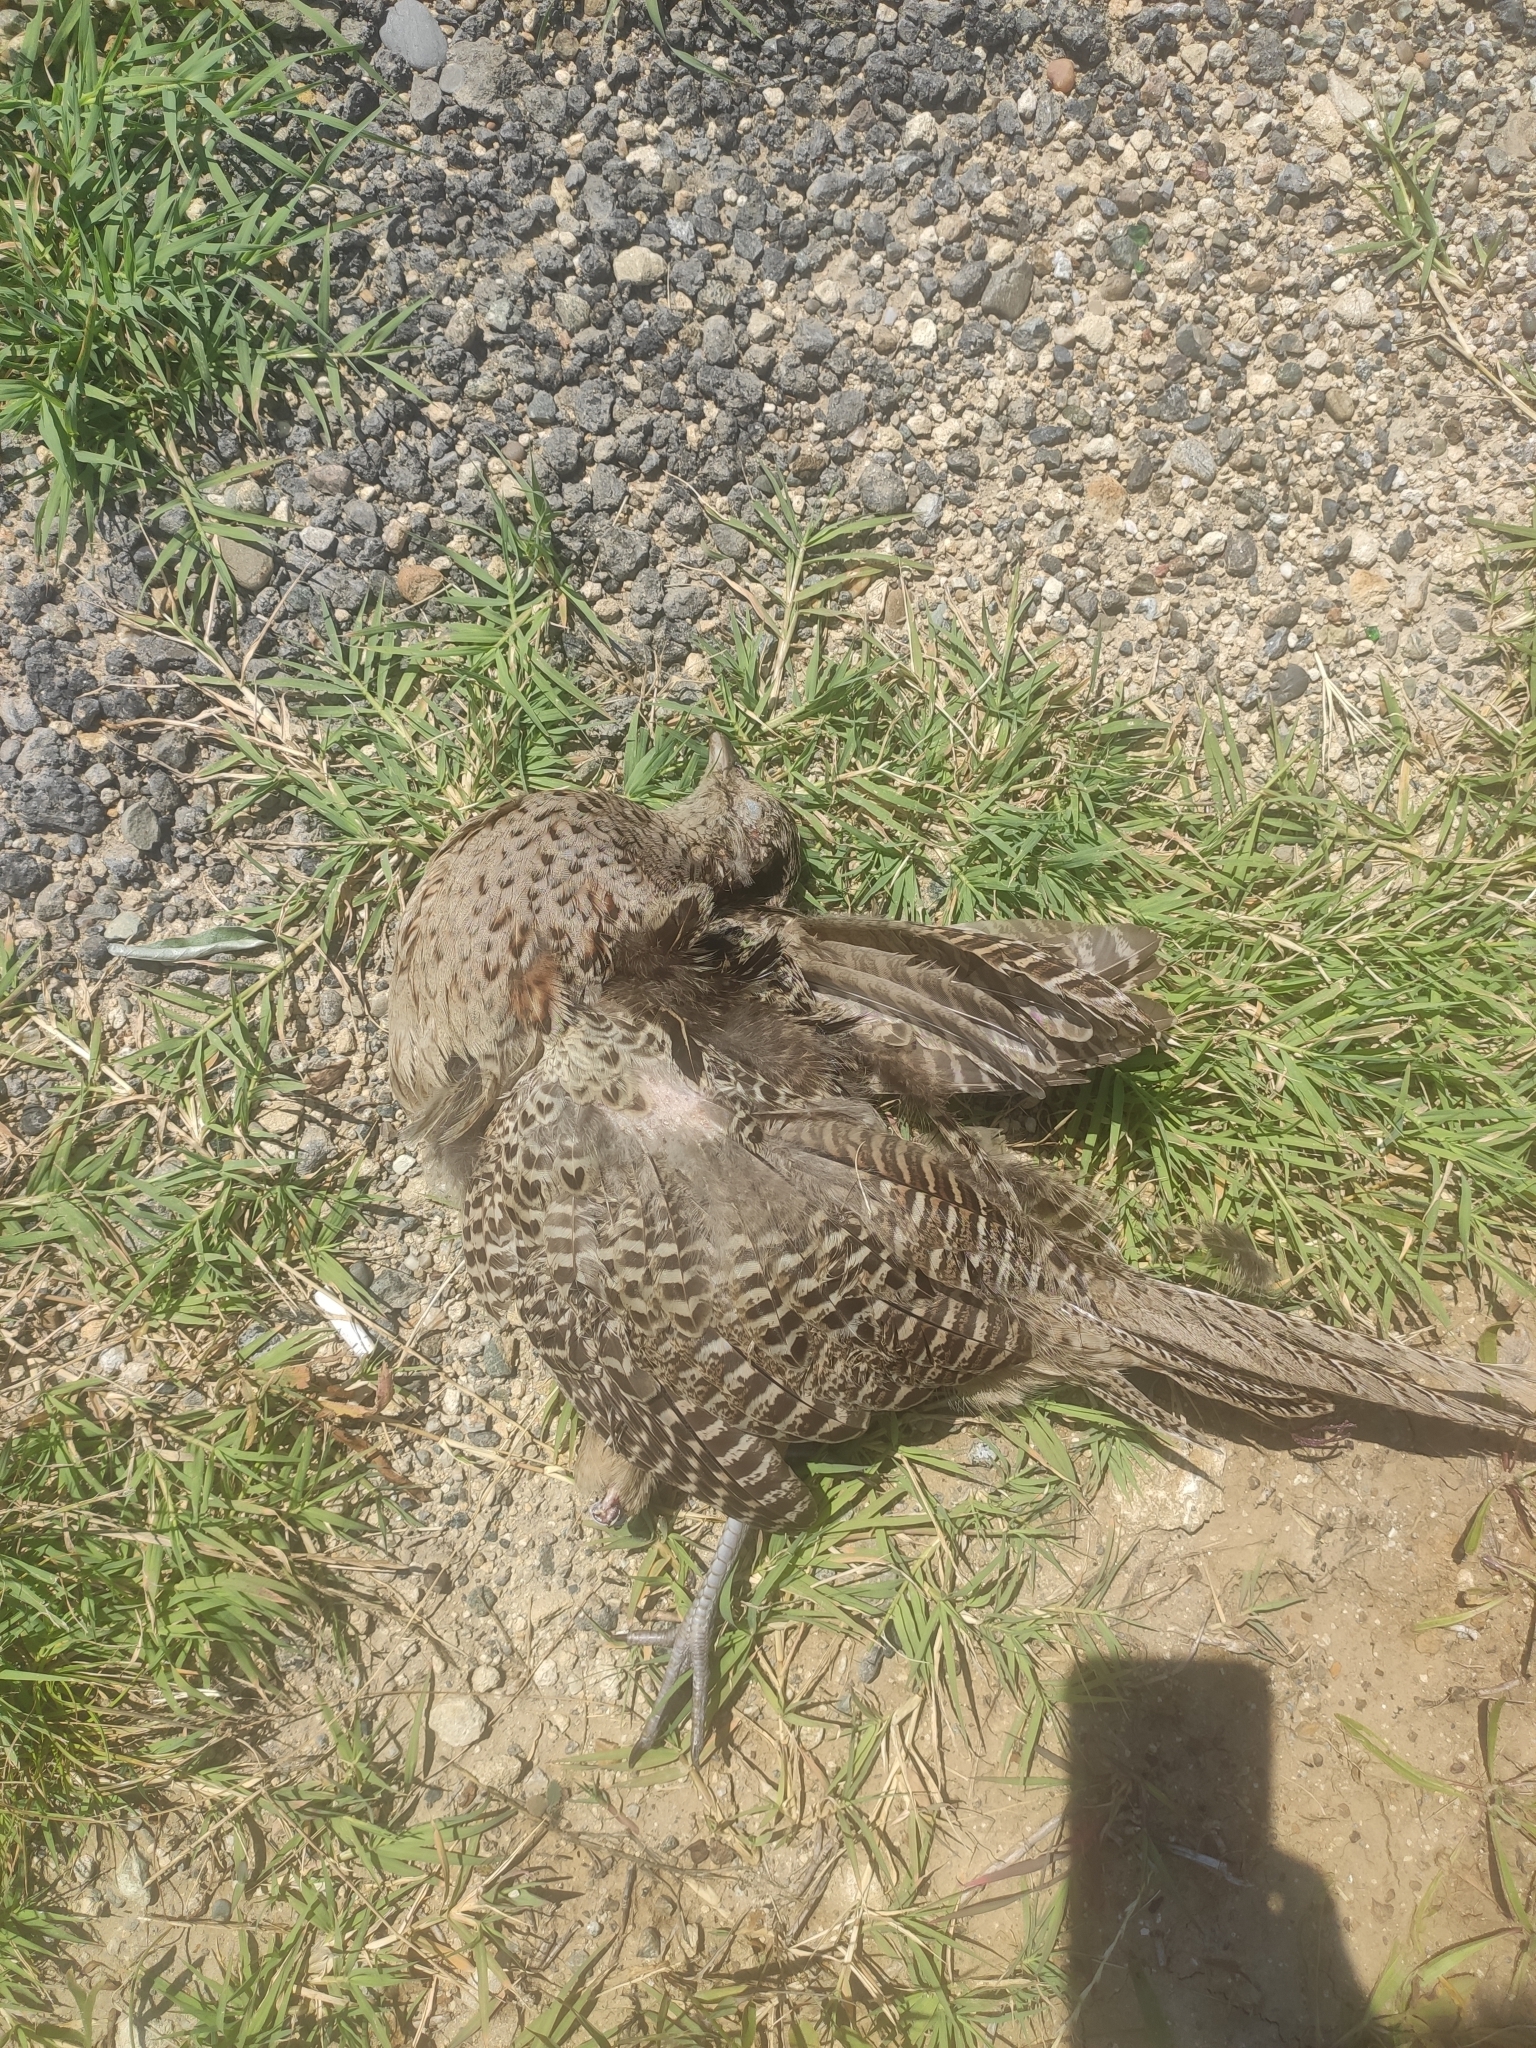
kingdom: Animalia
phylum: Chordata
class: Aves
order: Galliformes
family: Phasianidae
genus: Phasianus
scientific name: Phasianus colchicus
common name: Common pheasant
